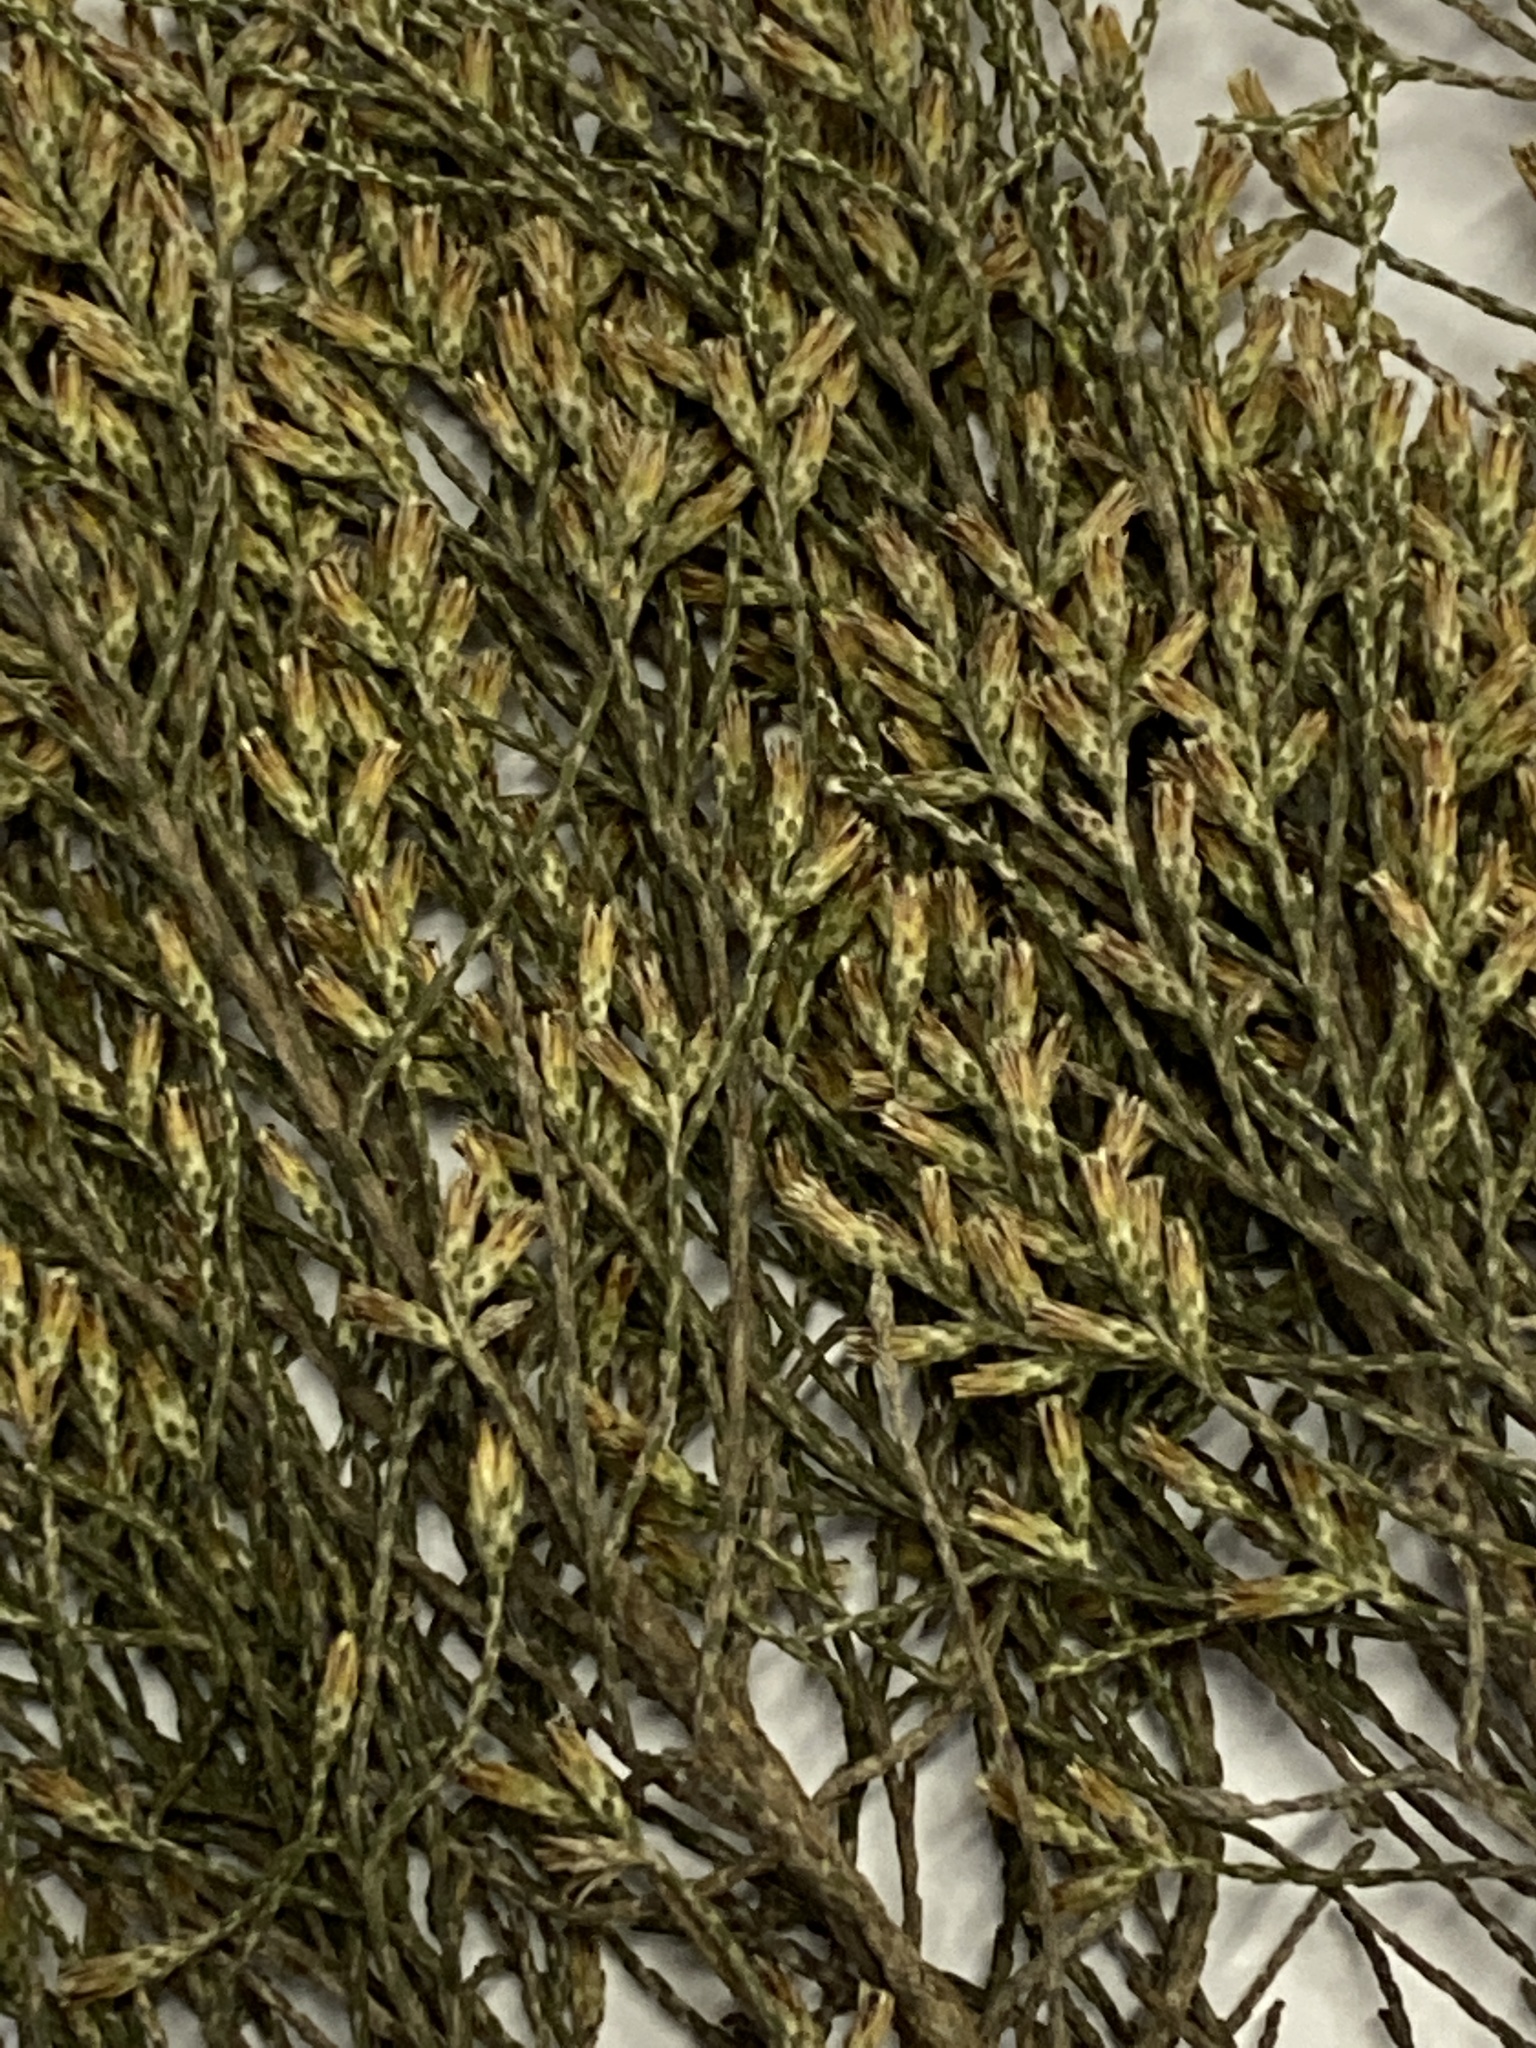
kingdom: Plantae
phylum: Tracheophyta
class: Magnoliopsida
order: Asterales
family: Asteraceae
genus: Dicerothamnus
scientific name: Dicerothamnus rhinocerotis
